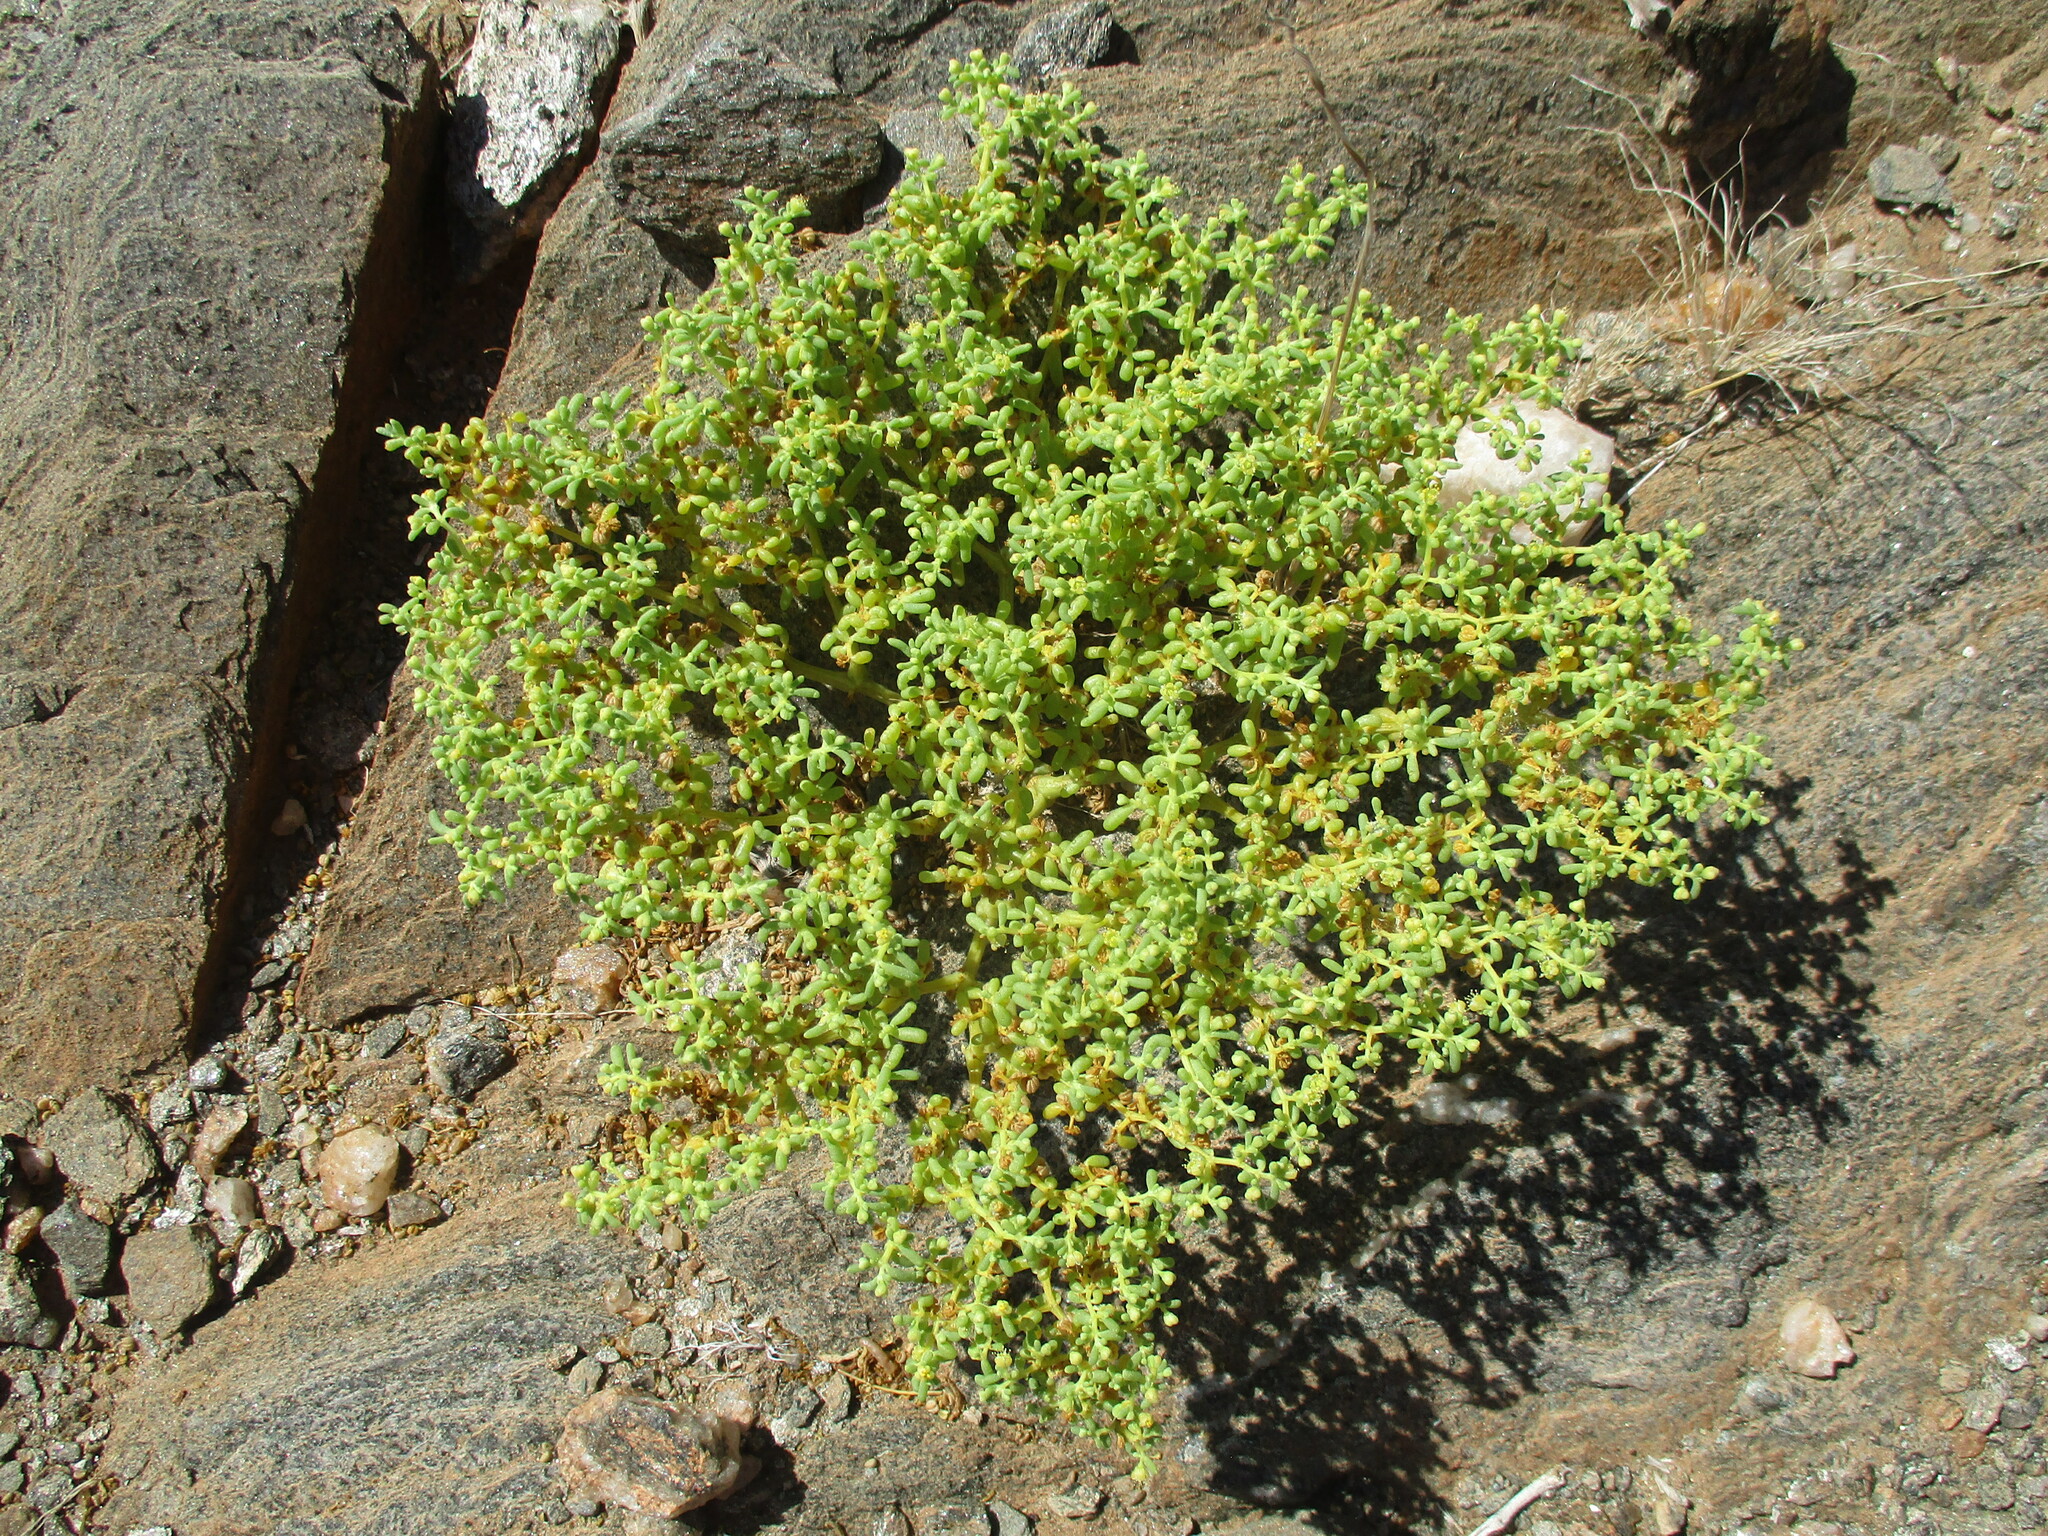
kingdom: Plantae
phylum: Tracheophyta
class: Magnoliopsida
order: Zygophyllales
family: Zygophyllaceae
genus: Tetraena
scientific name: Tetraena simplex
